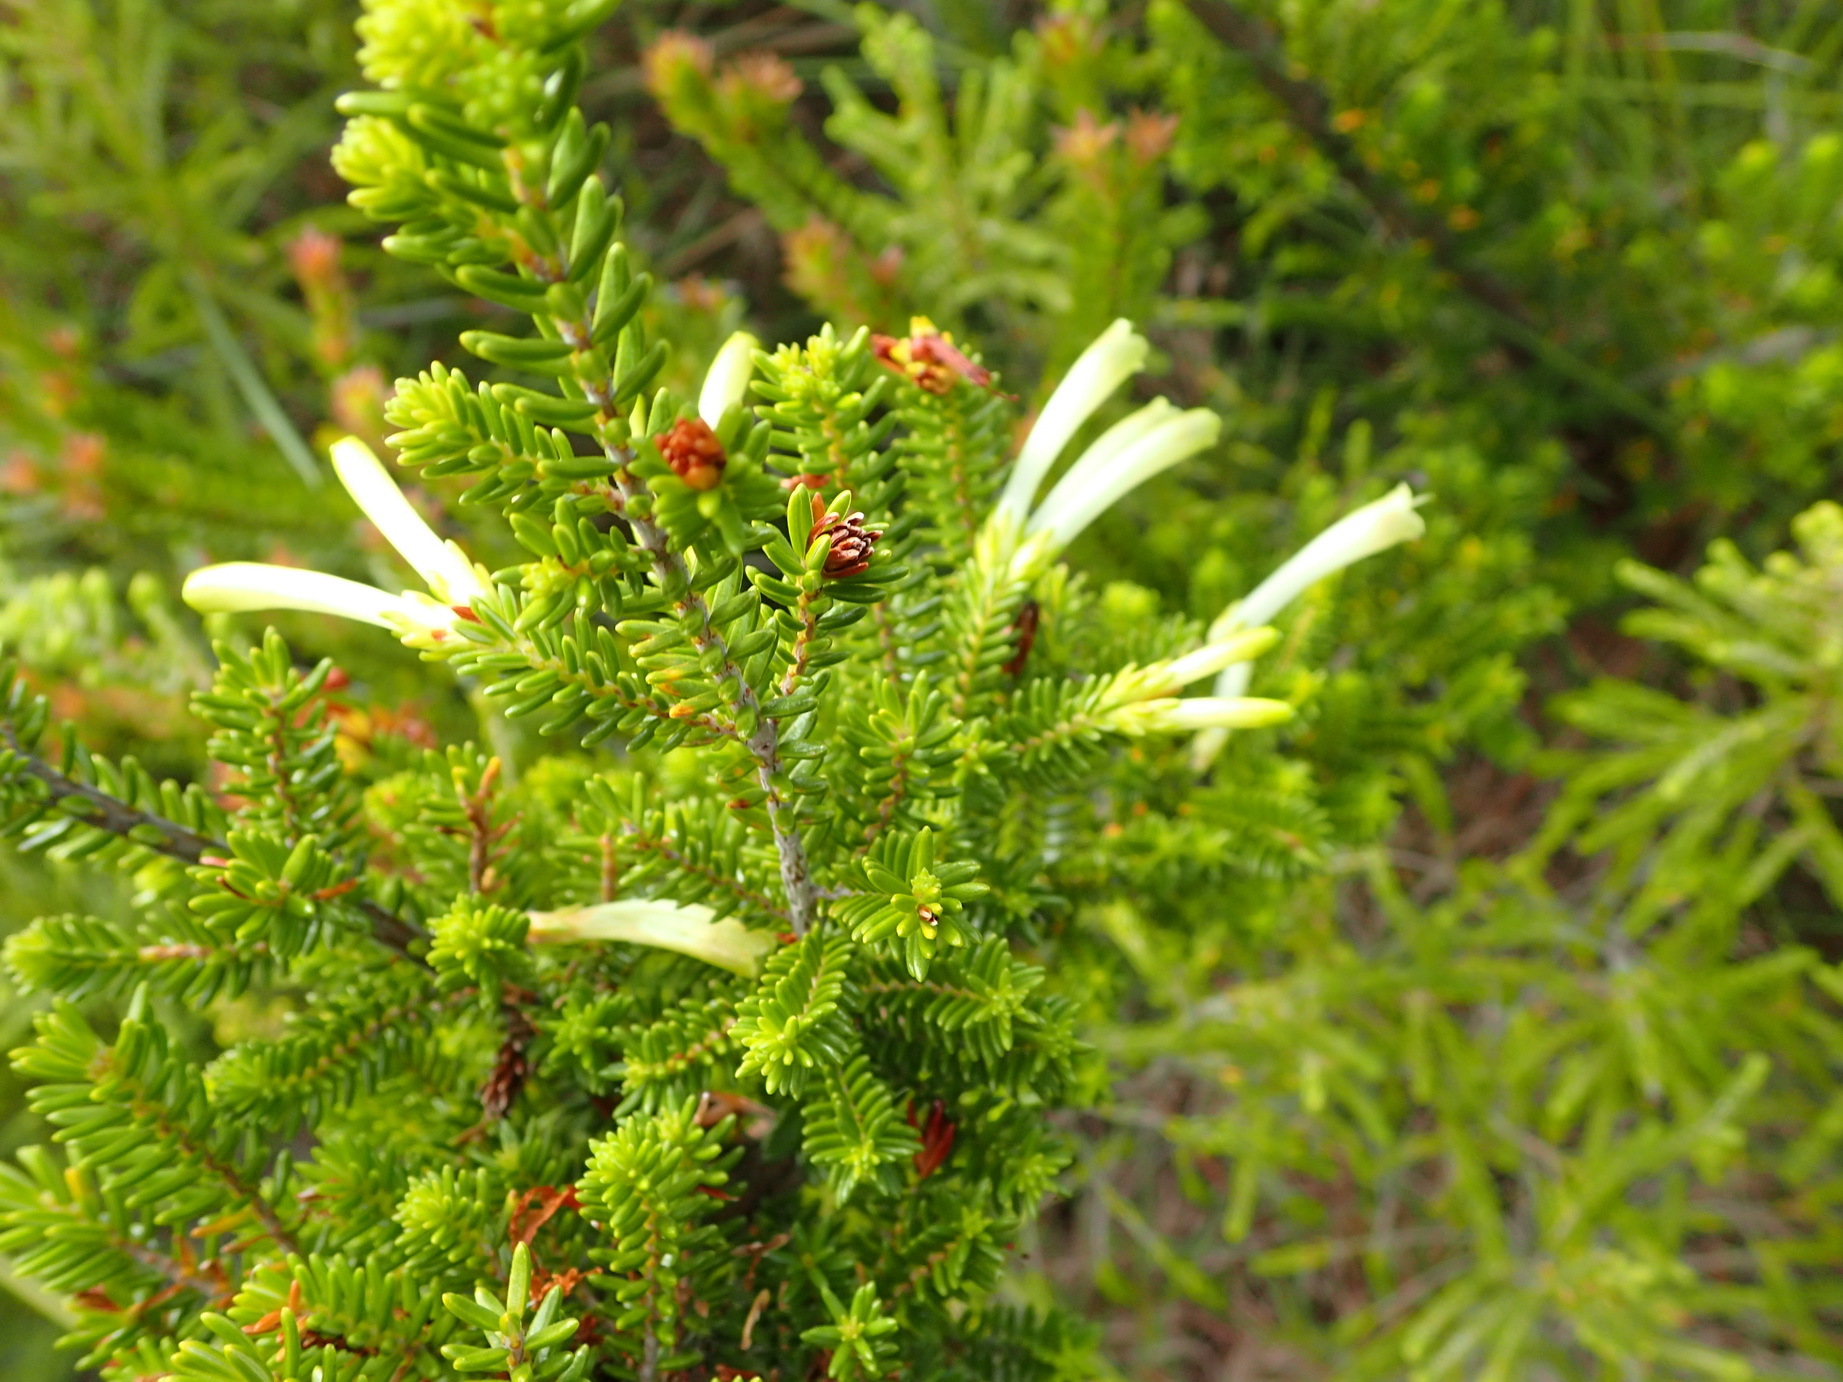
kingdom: Plantae
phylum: Tracheophyta
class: Magnoliopsida
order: Ericales
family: Ericaceae
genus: Erica
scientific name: Erica discolor
